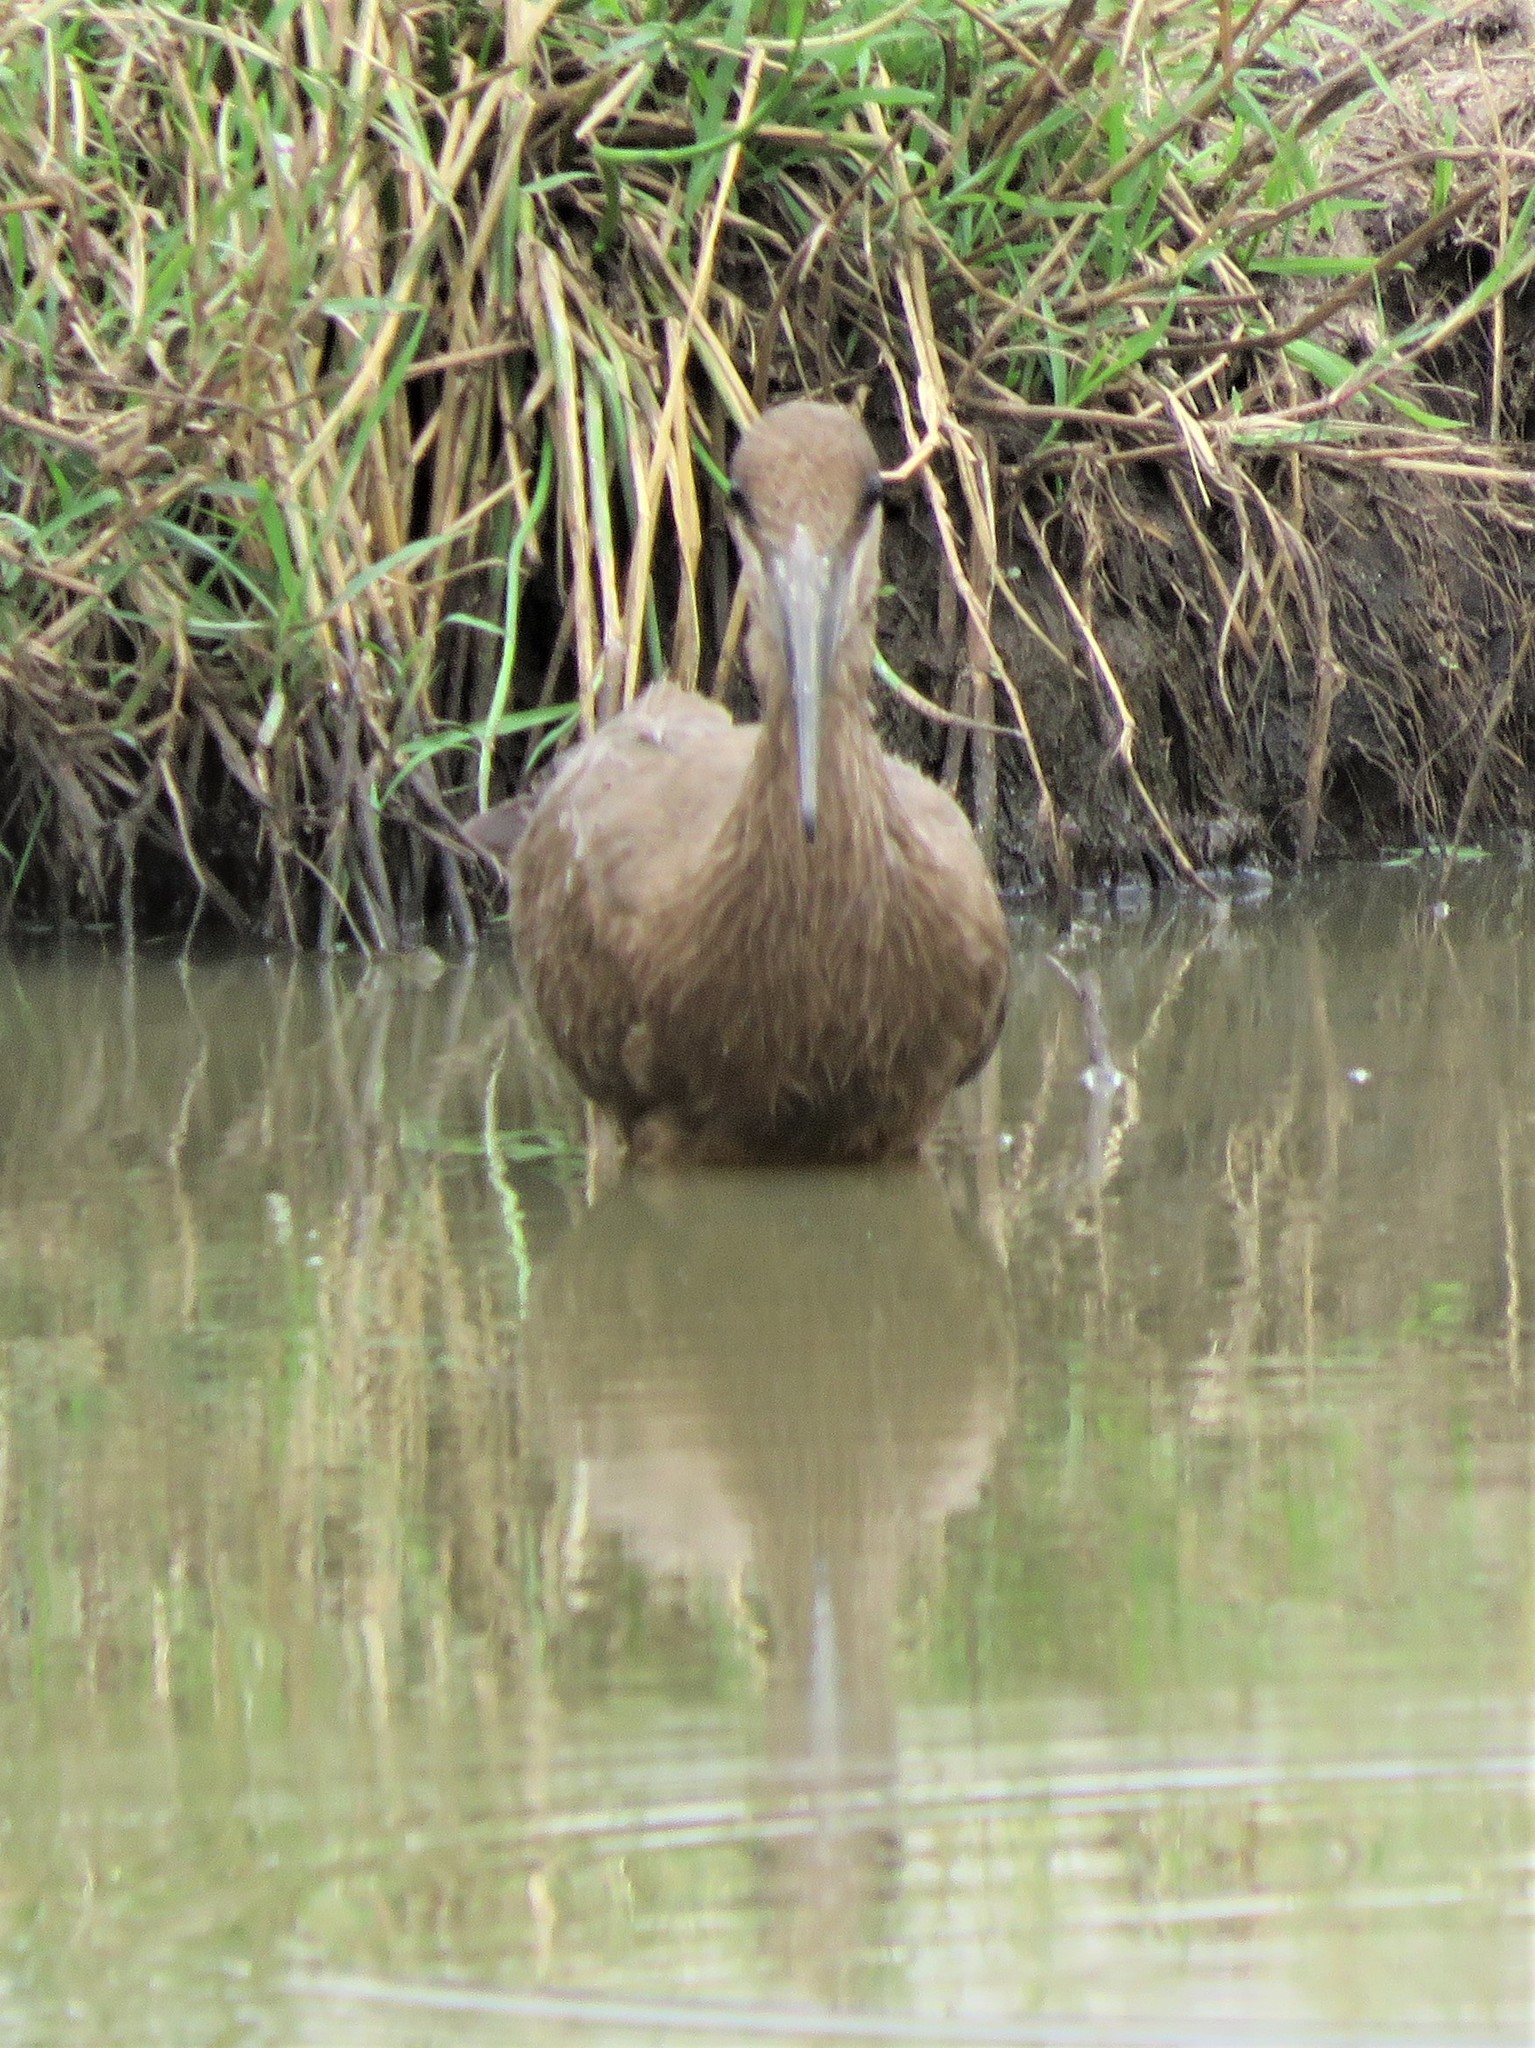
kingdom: Animalia
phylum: Chordata
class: Aves
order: Pelecaniformes
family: Scopidae
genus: Scopus
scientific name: Scopus umbretta
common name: Hamerkop
